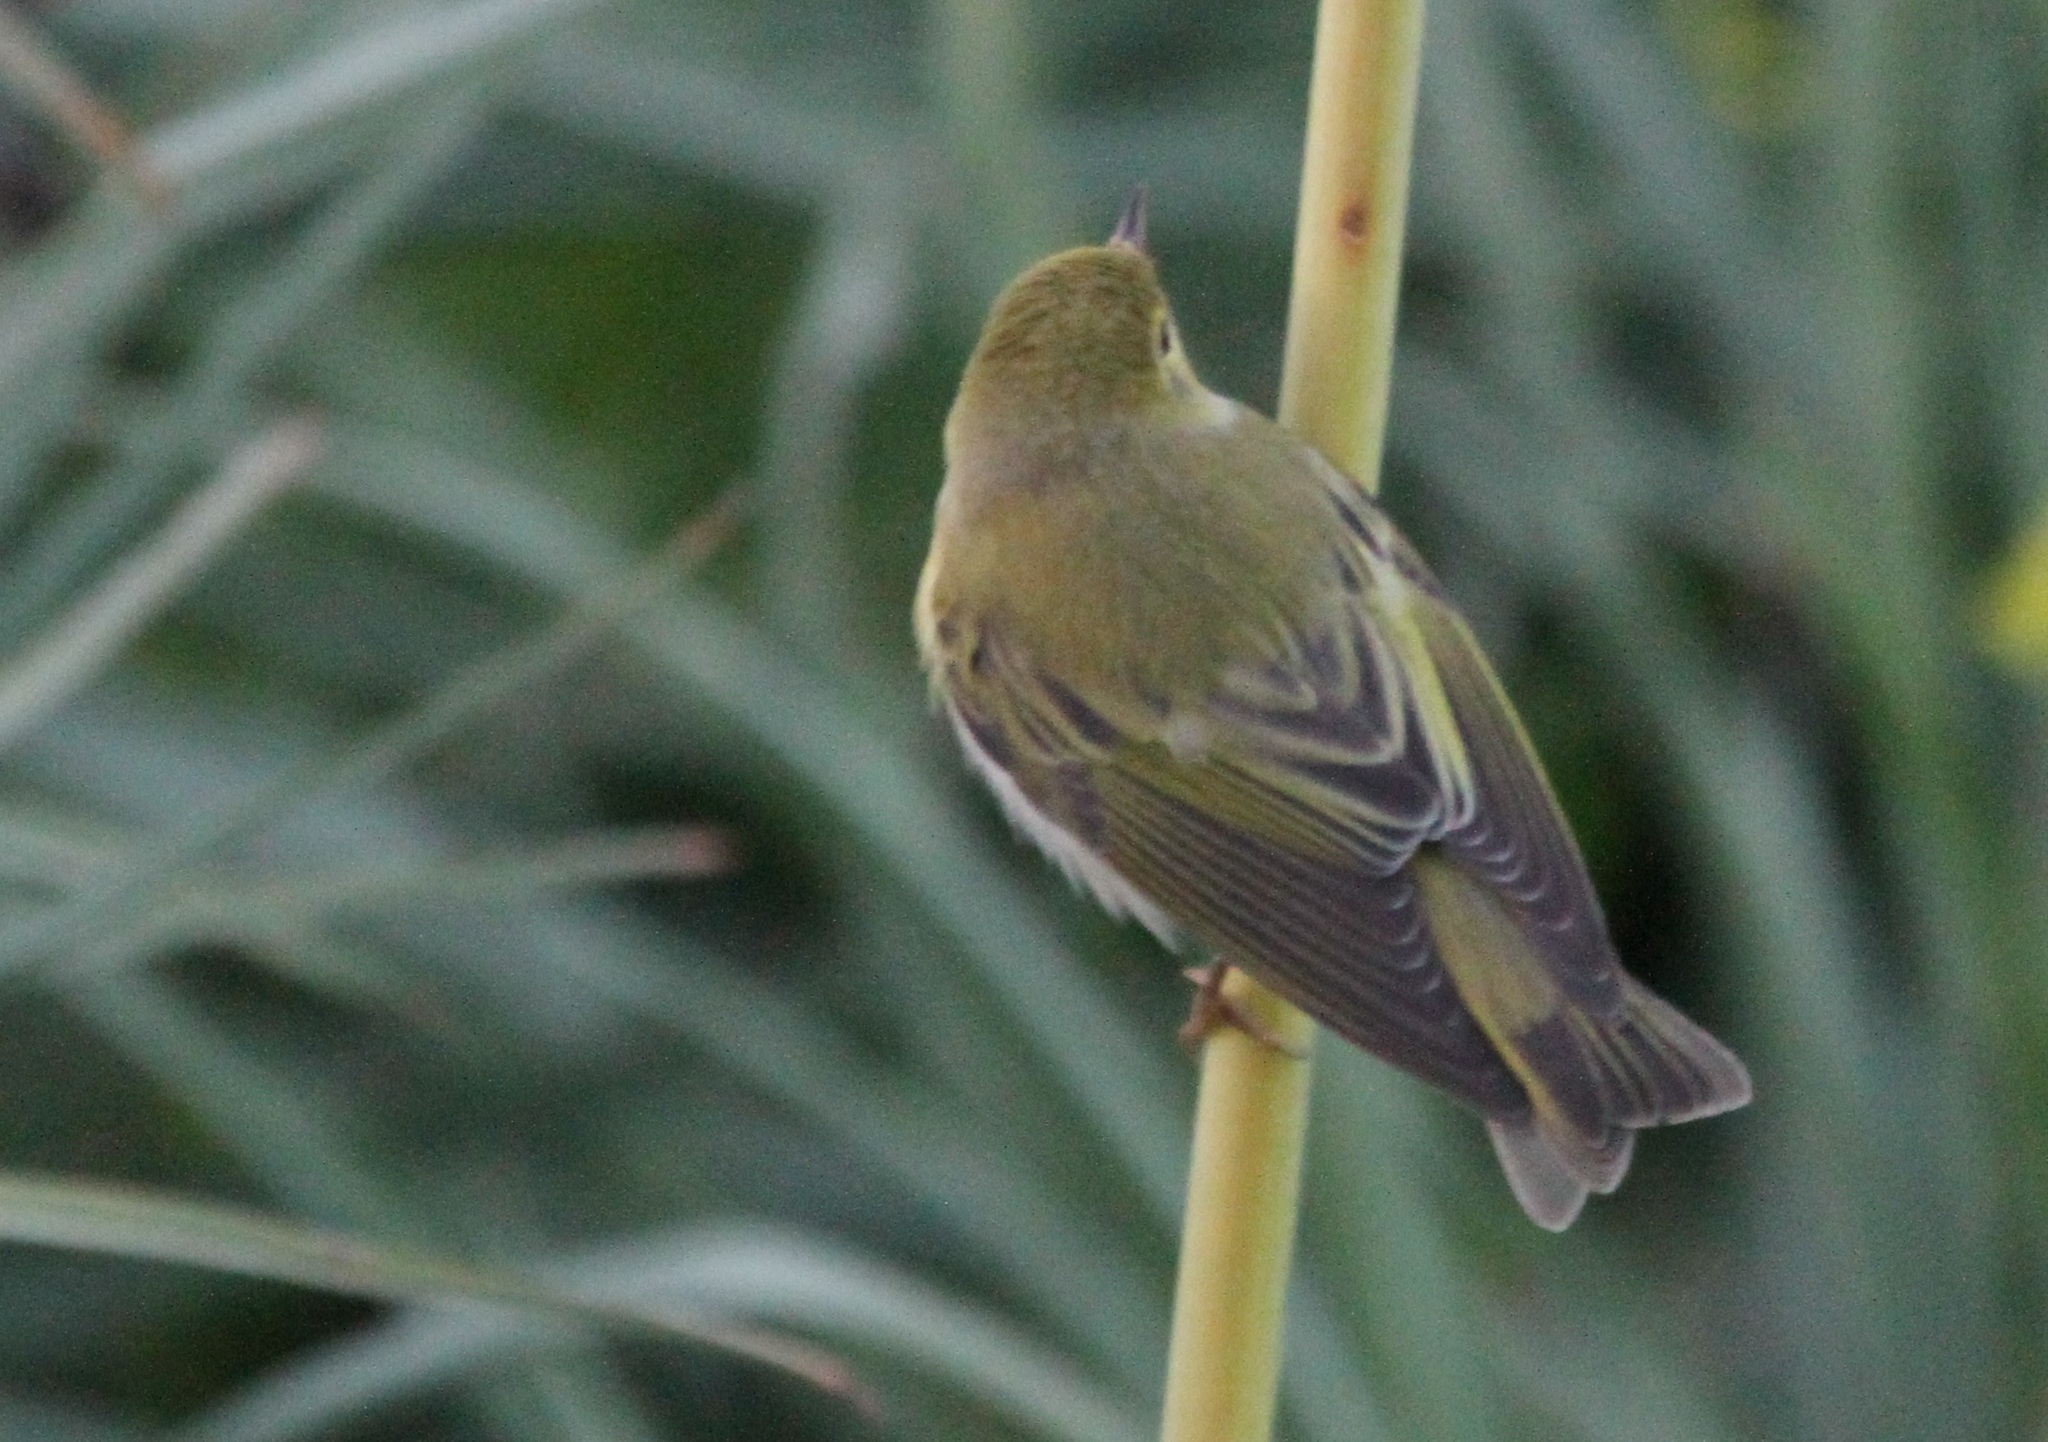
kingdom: Animalia
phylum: Chordata
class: Aves
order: Passeriformes
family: Phylloscopidae
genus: Phylloscopus
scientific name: Phylloscopus sibillatrix
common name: Wood warbler
